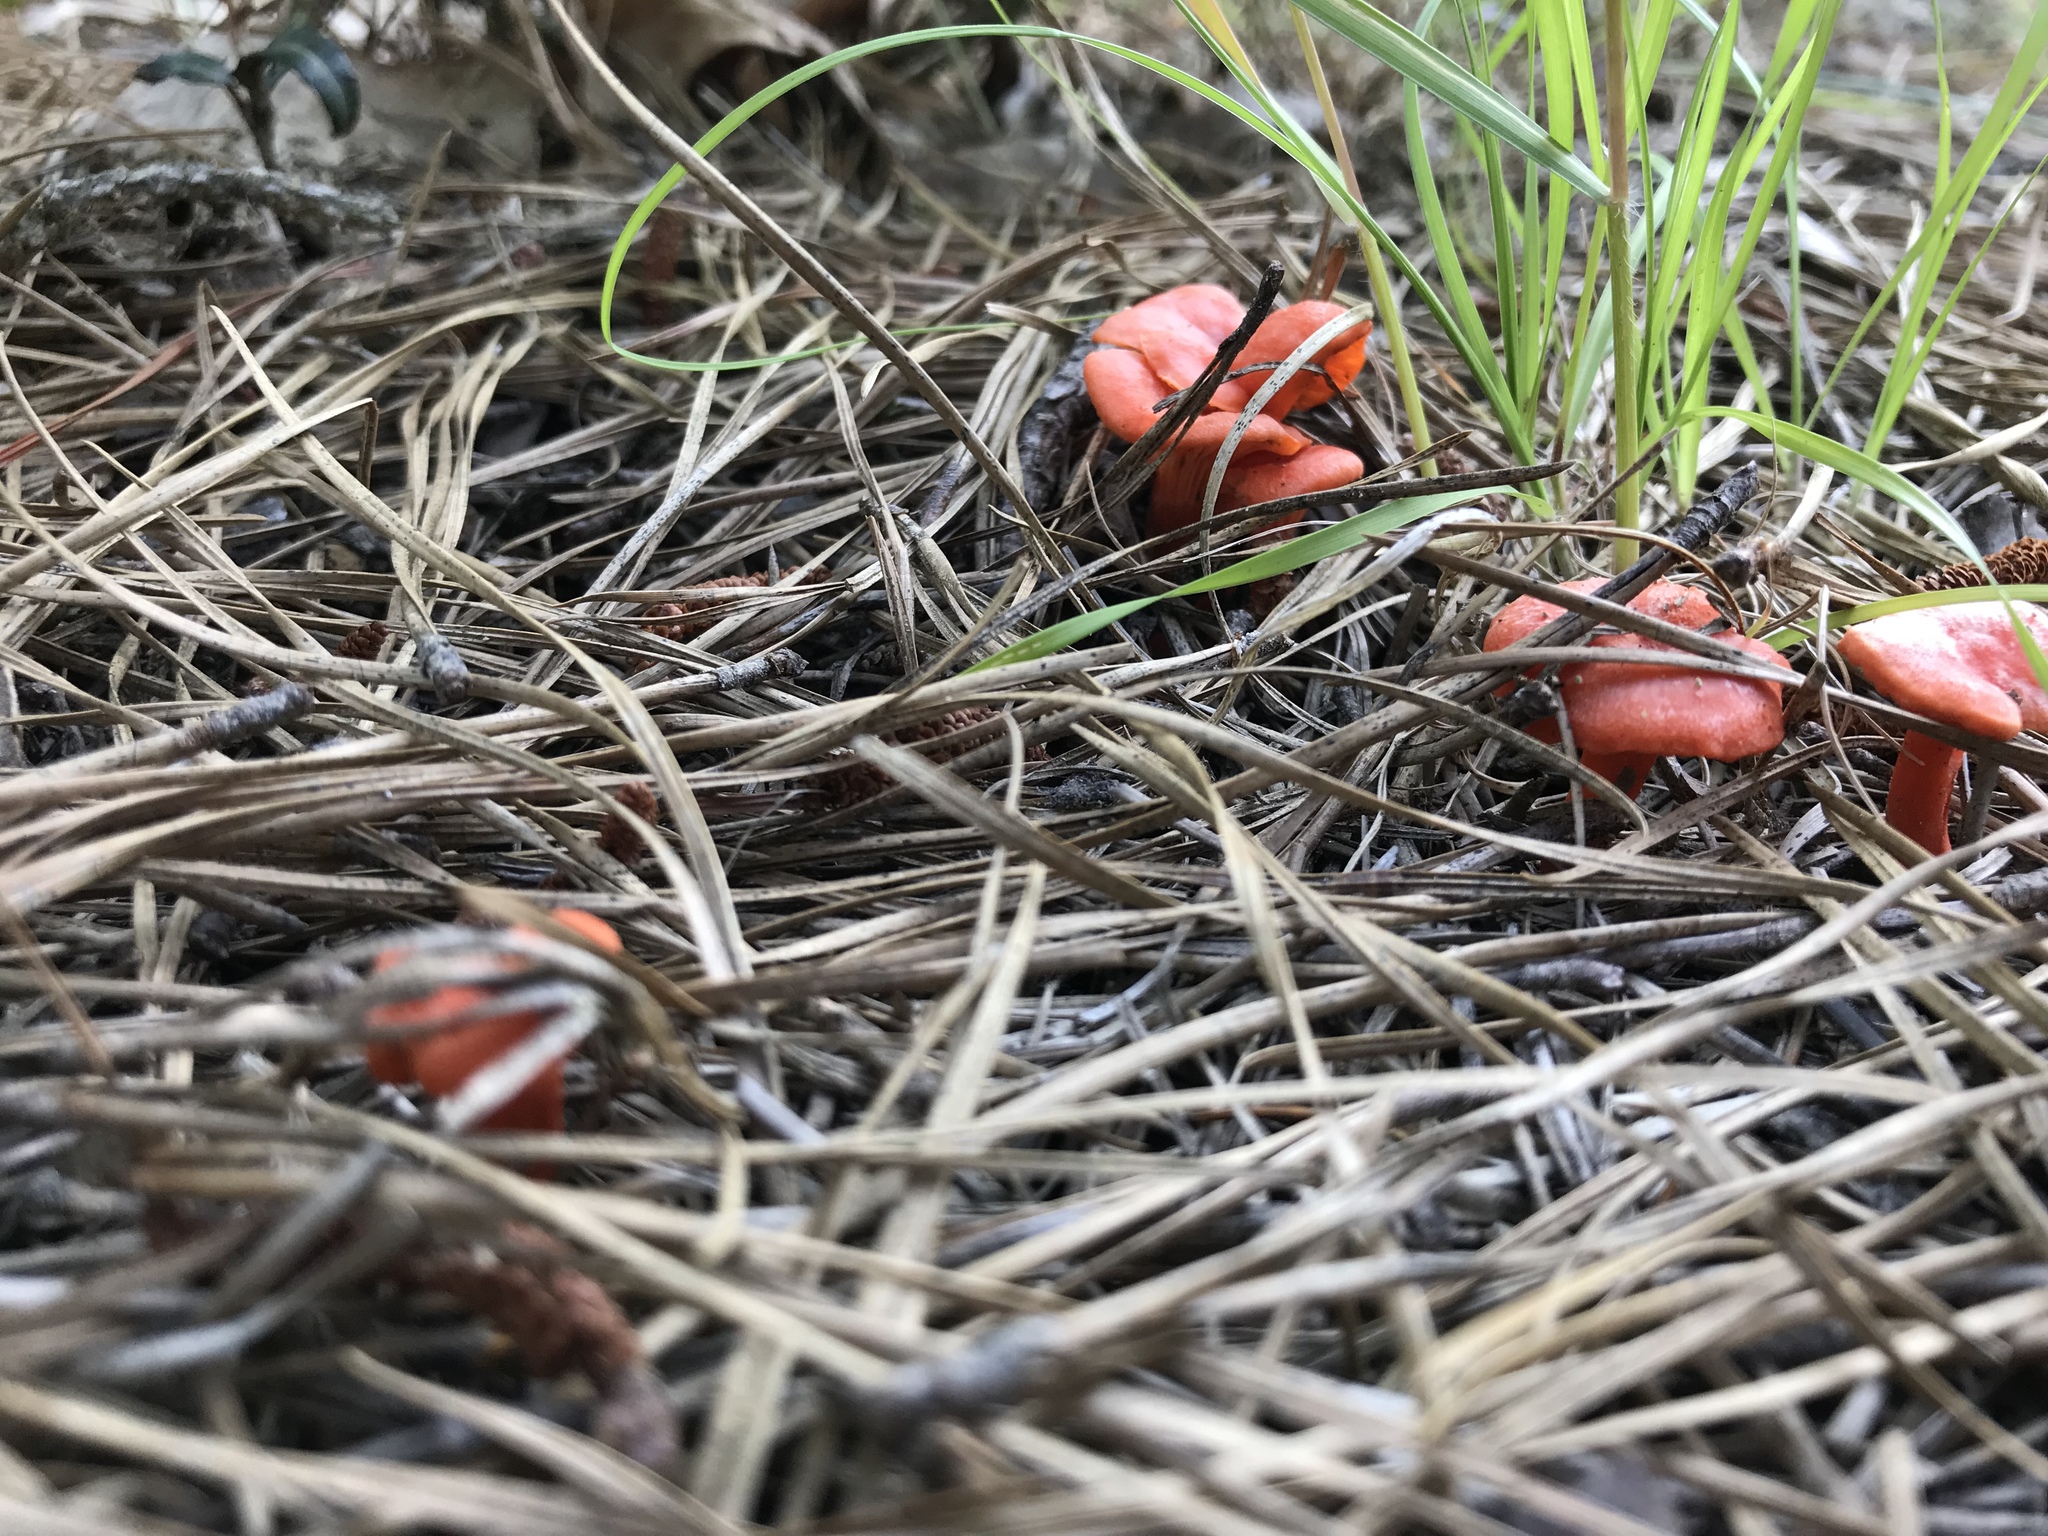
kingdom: Fungi
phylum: Basidiomycota
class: Agaricomycetes
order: Cantharellales
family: Hydnaceae
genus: Cantharellus
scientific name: Cantharellus cinnabarinus
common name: Cinnabar chanterelle
